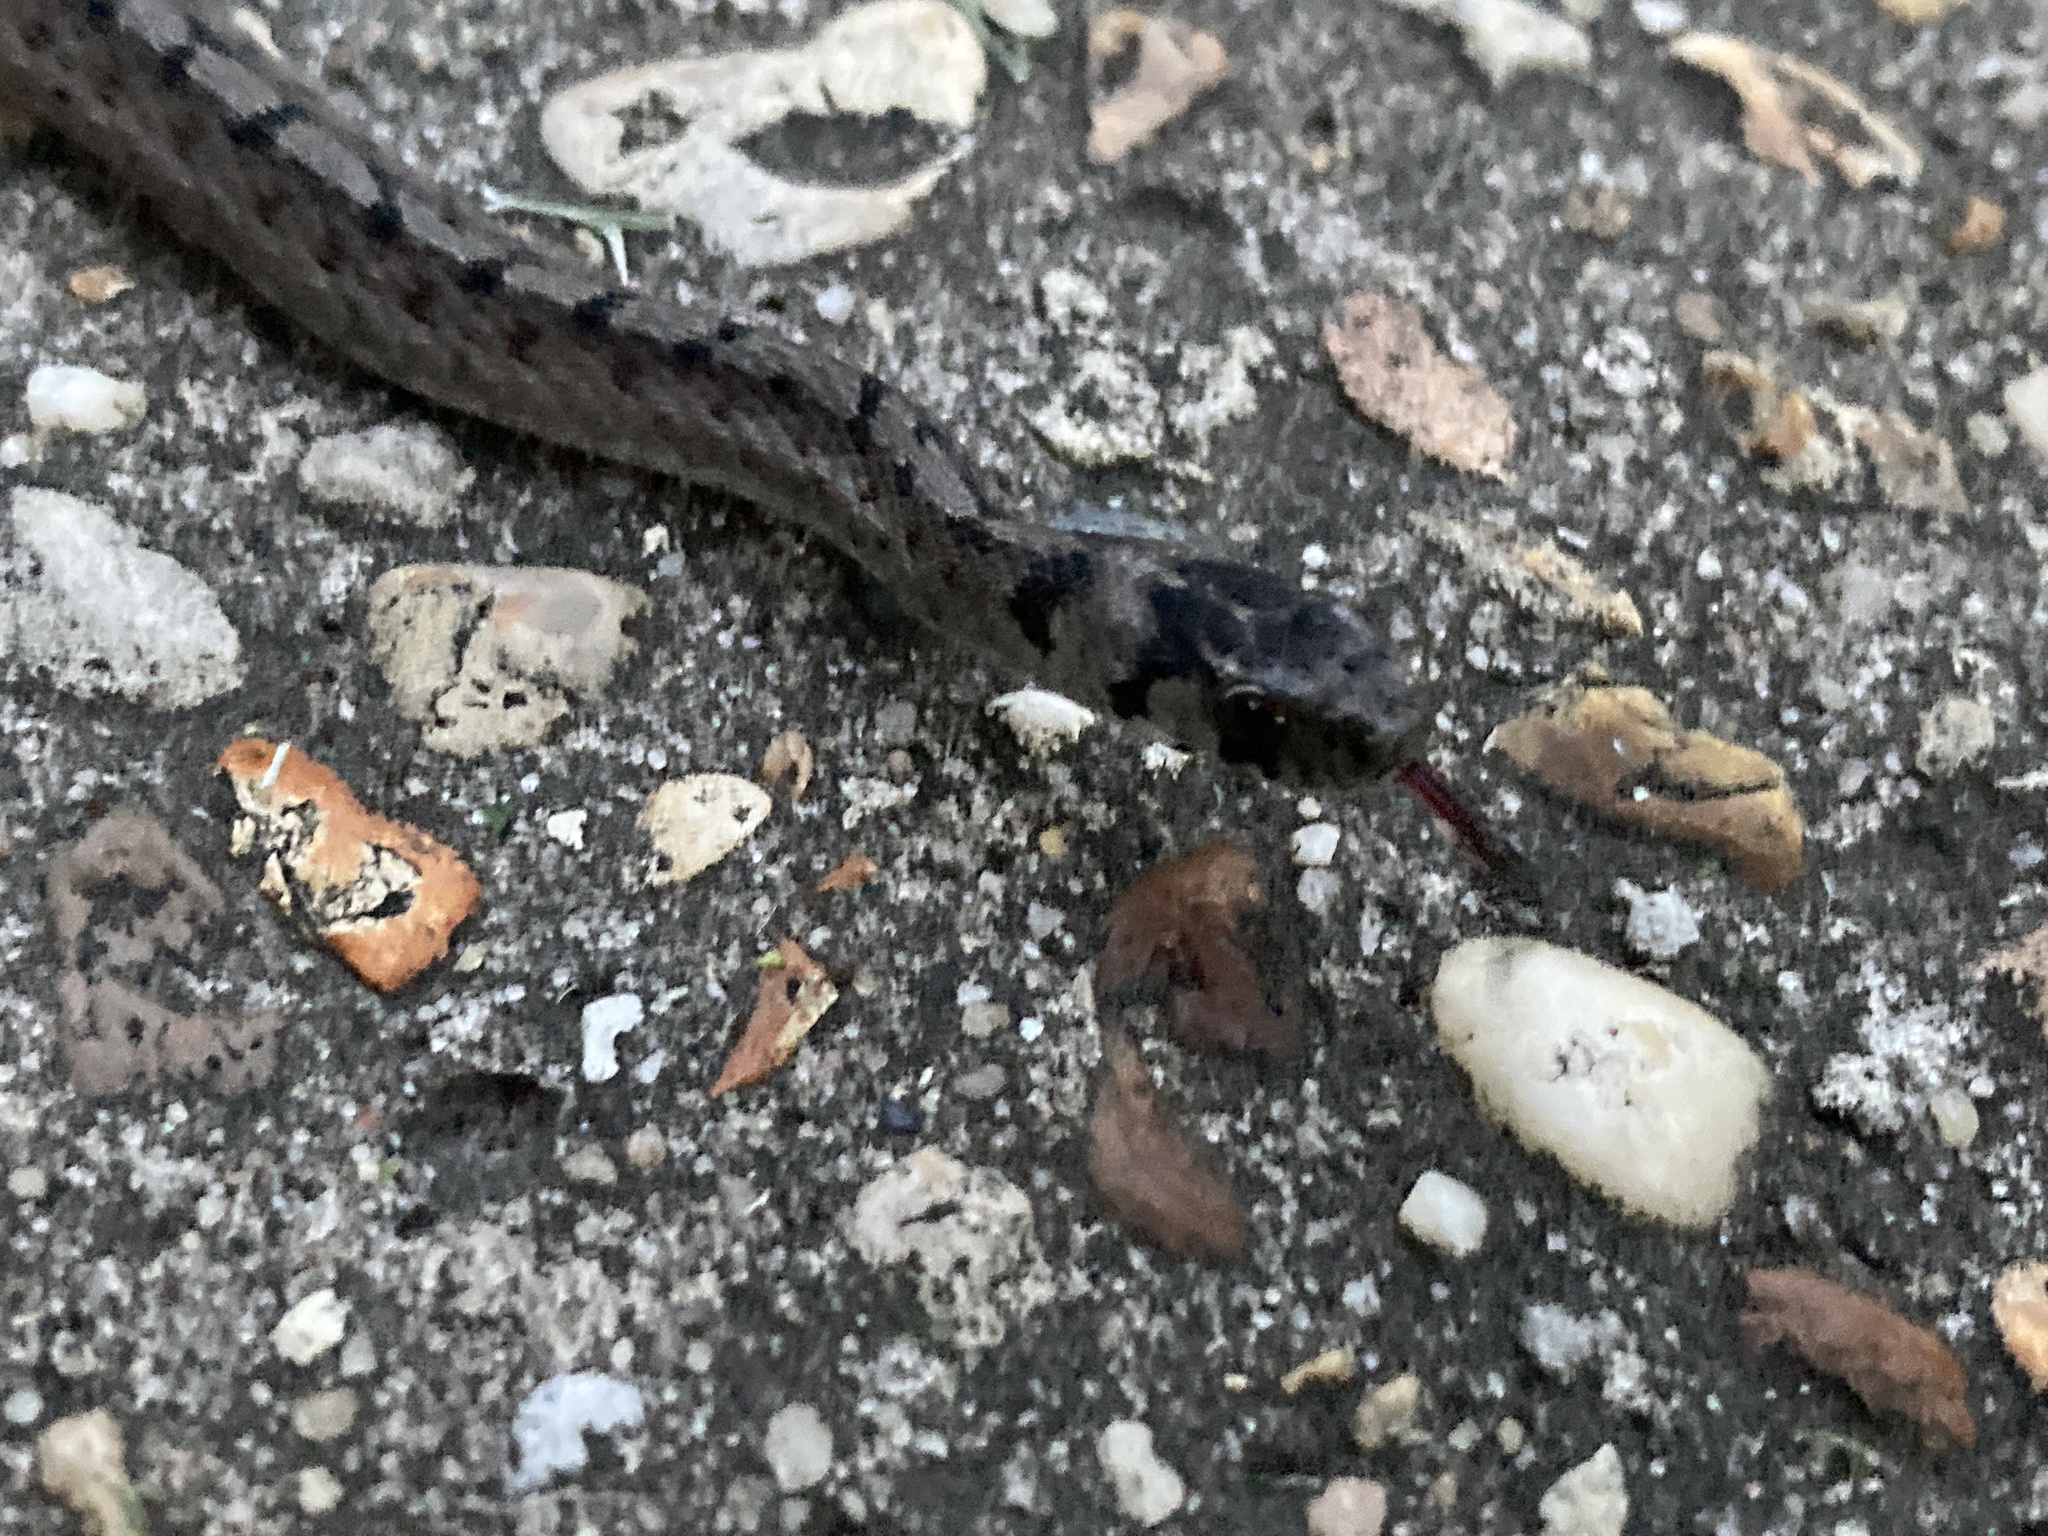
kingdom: Animalia
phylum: Chordata
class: Squamata
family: Colubridae
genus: Storeria
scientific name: Storeria dekayi
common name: (dekay’s) brown snake
